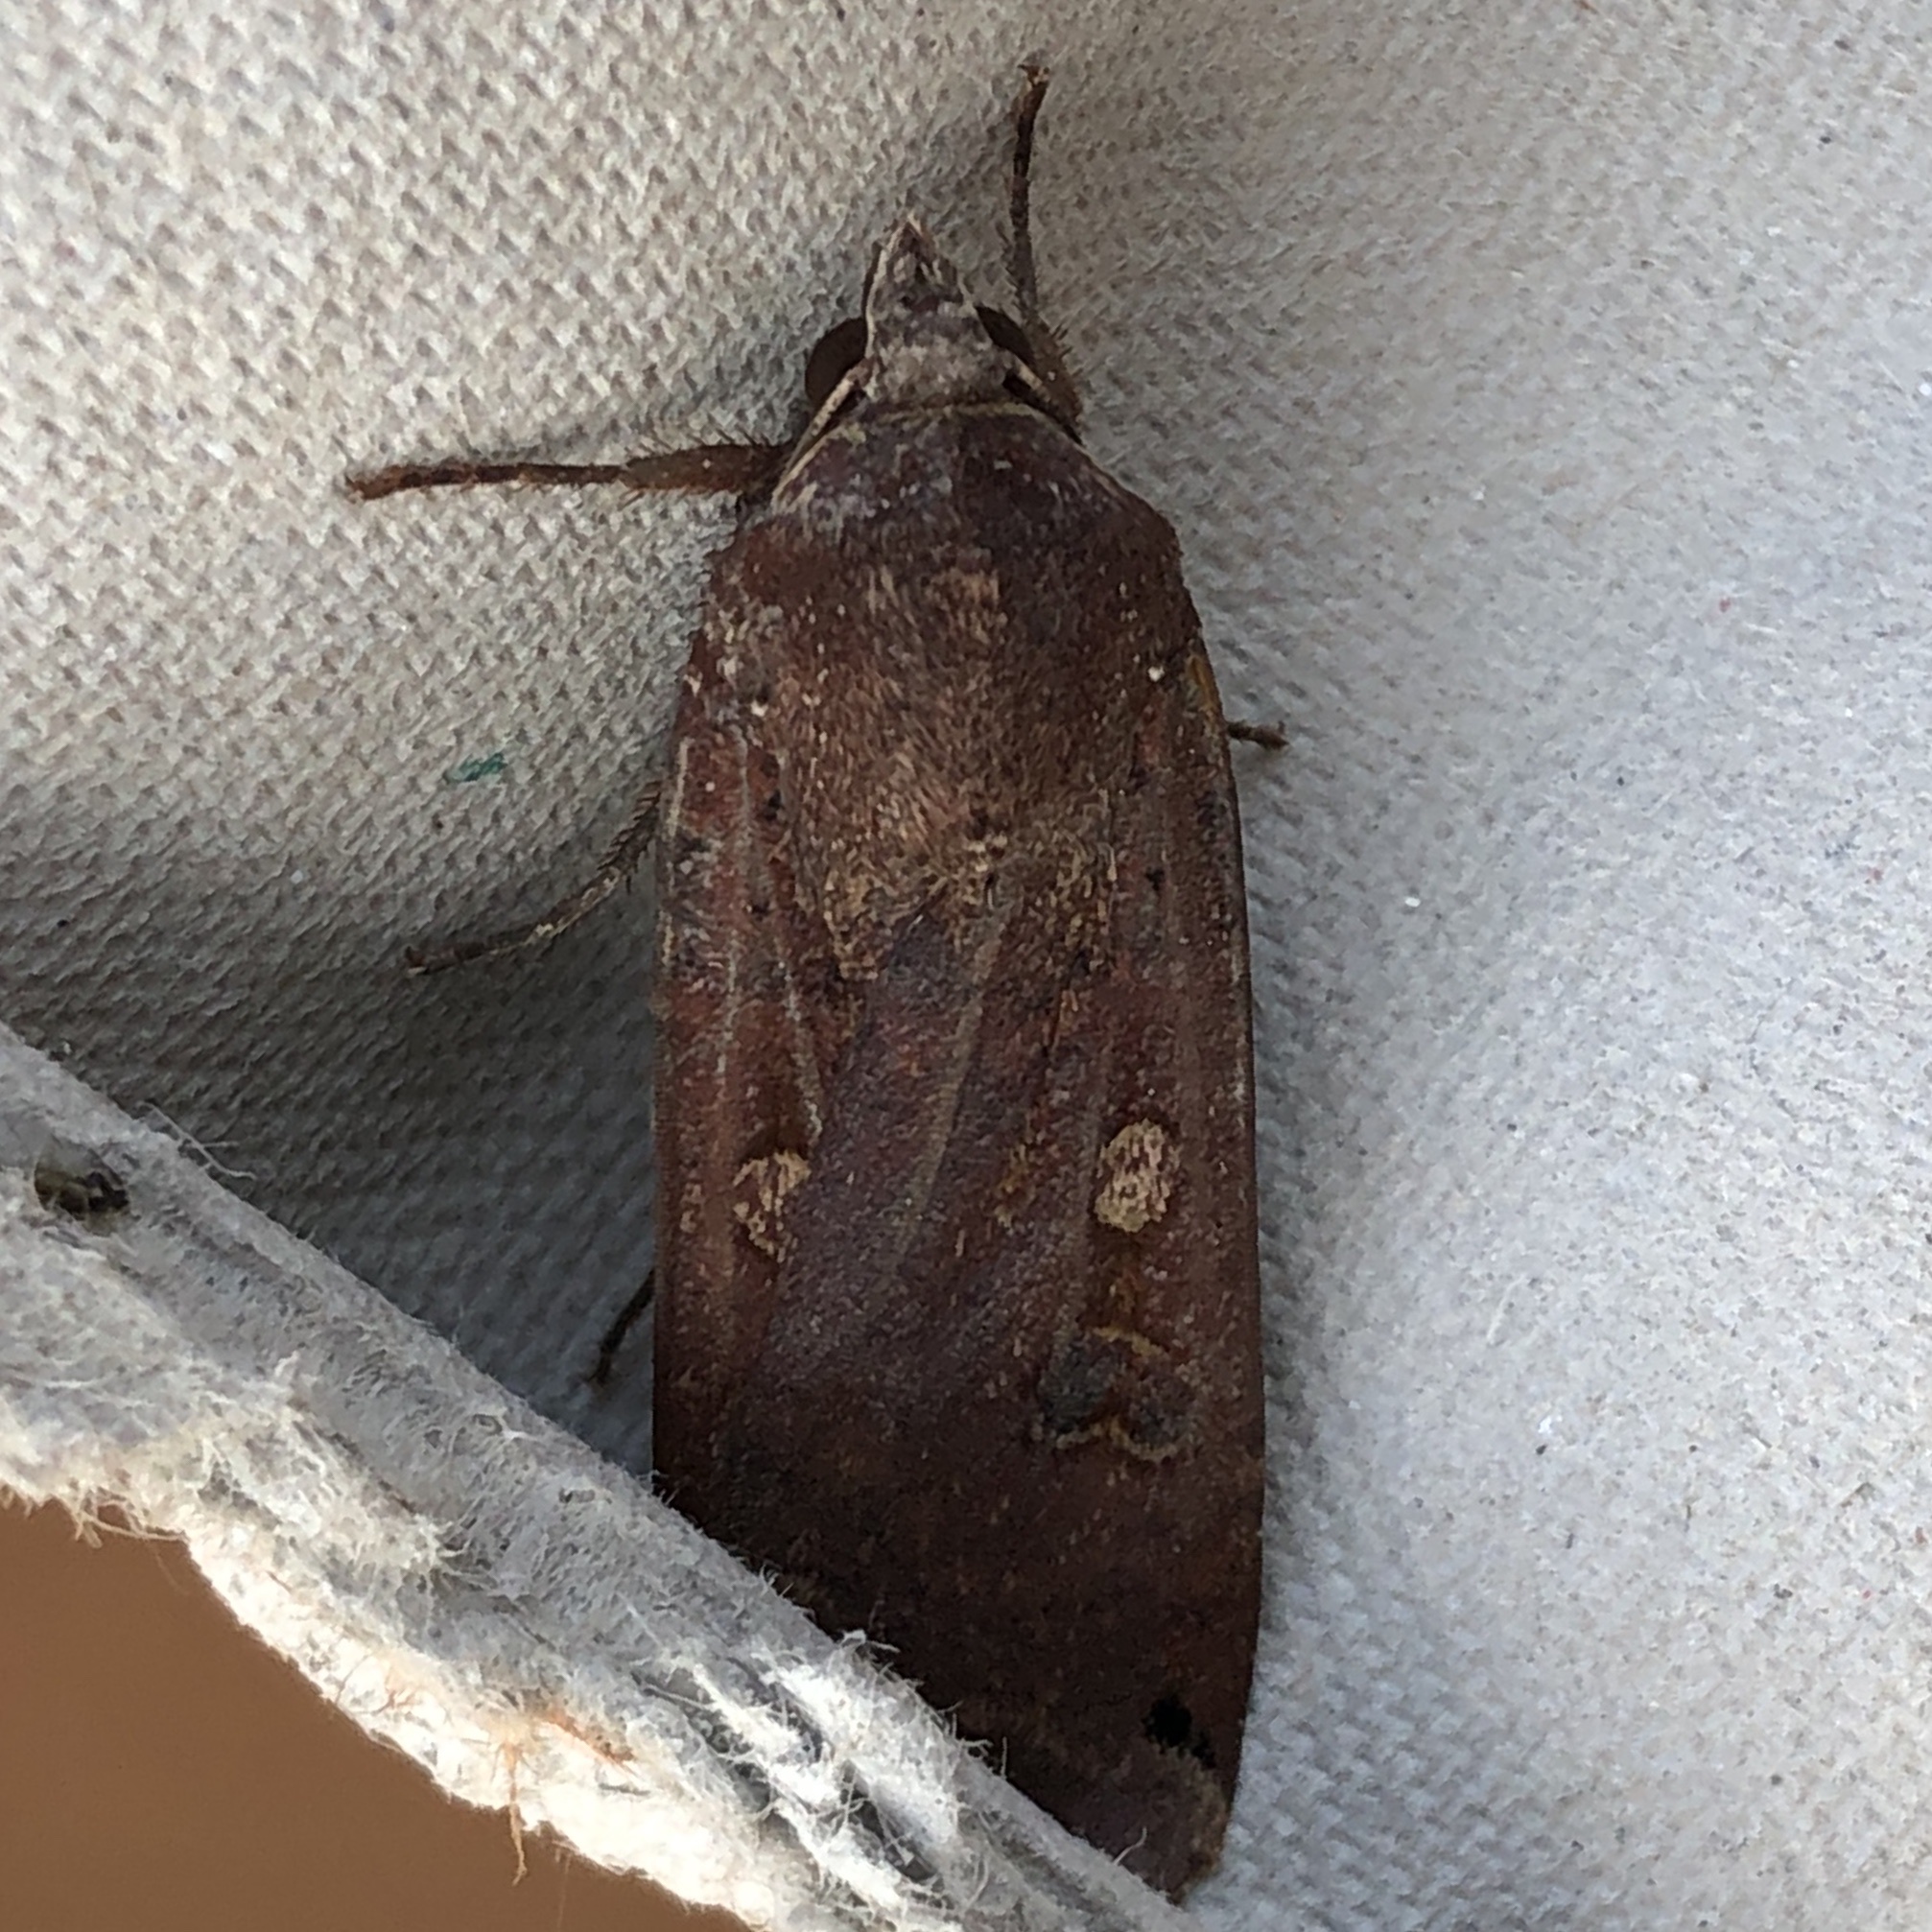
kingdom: Animalia
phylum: Arthropoda
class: Insecta
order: Lepidoptera
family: Noctuidae
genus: Noctua
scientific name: Noctua pronuba
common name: Large yellow underwing
